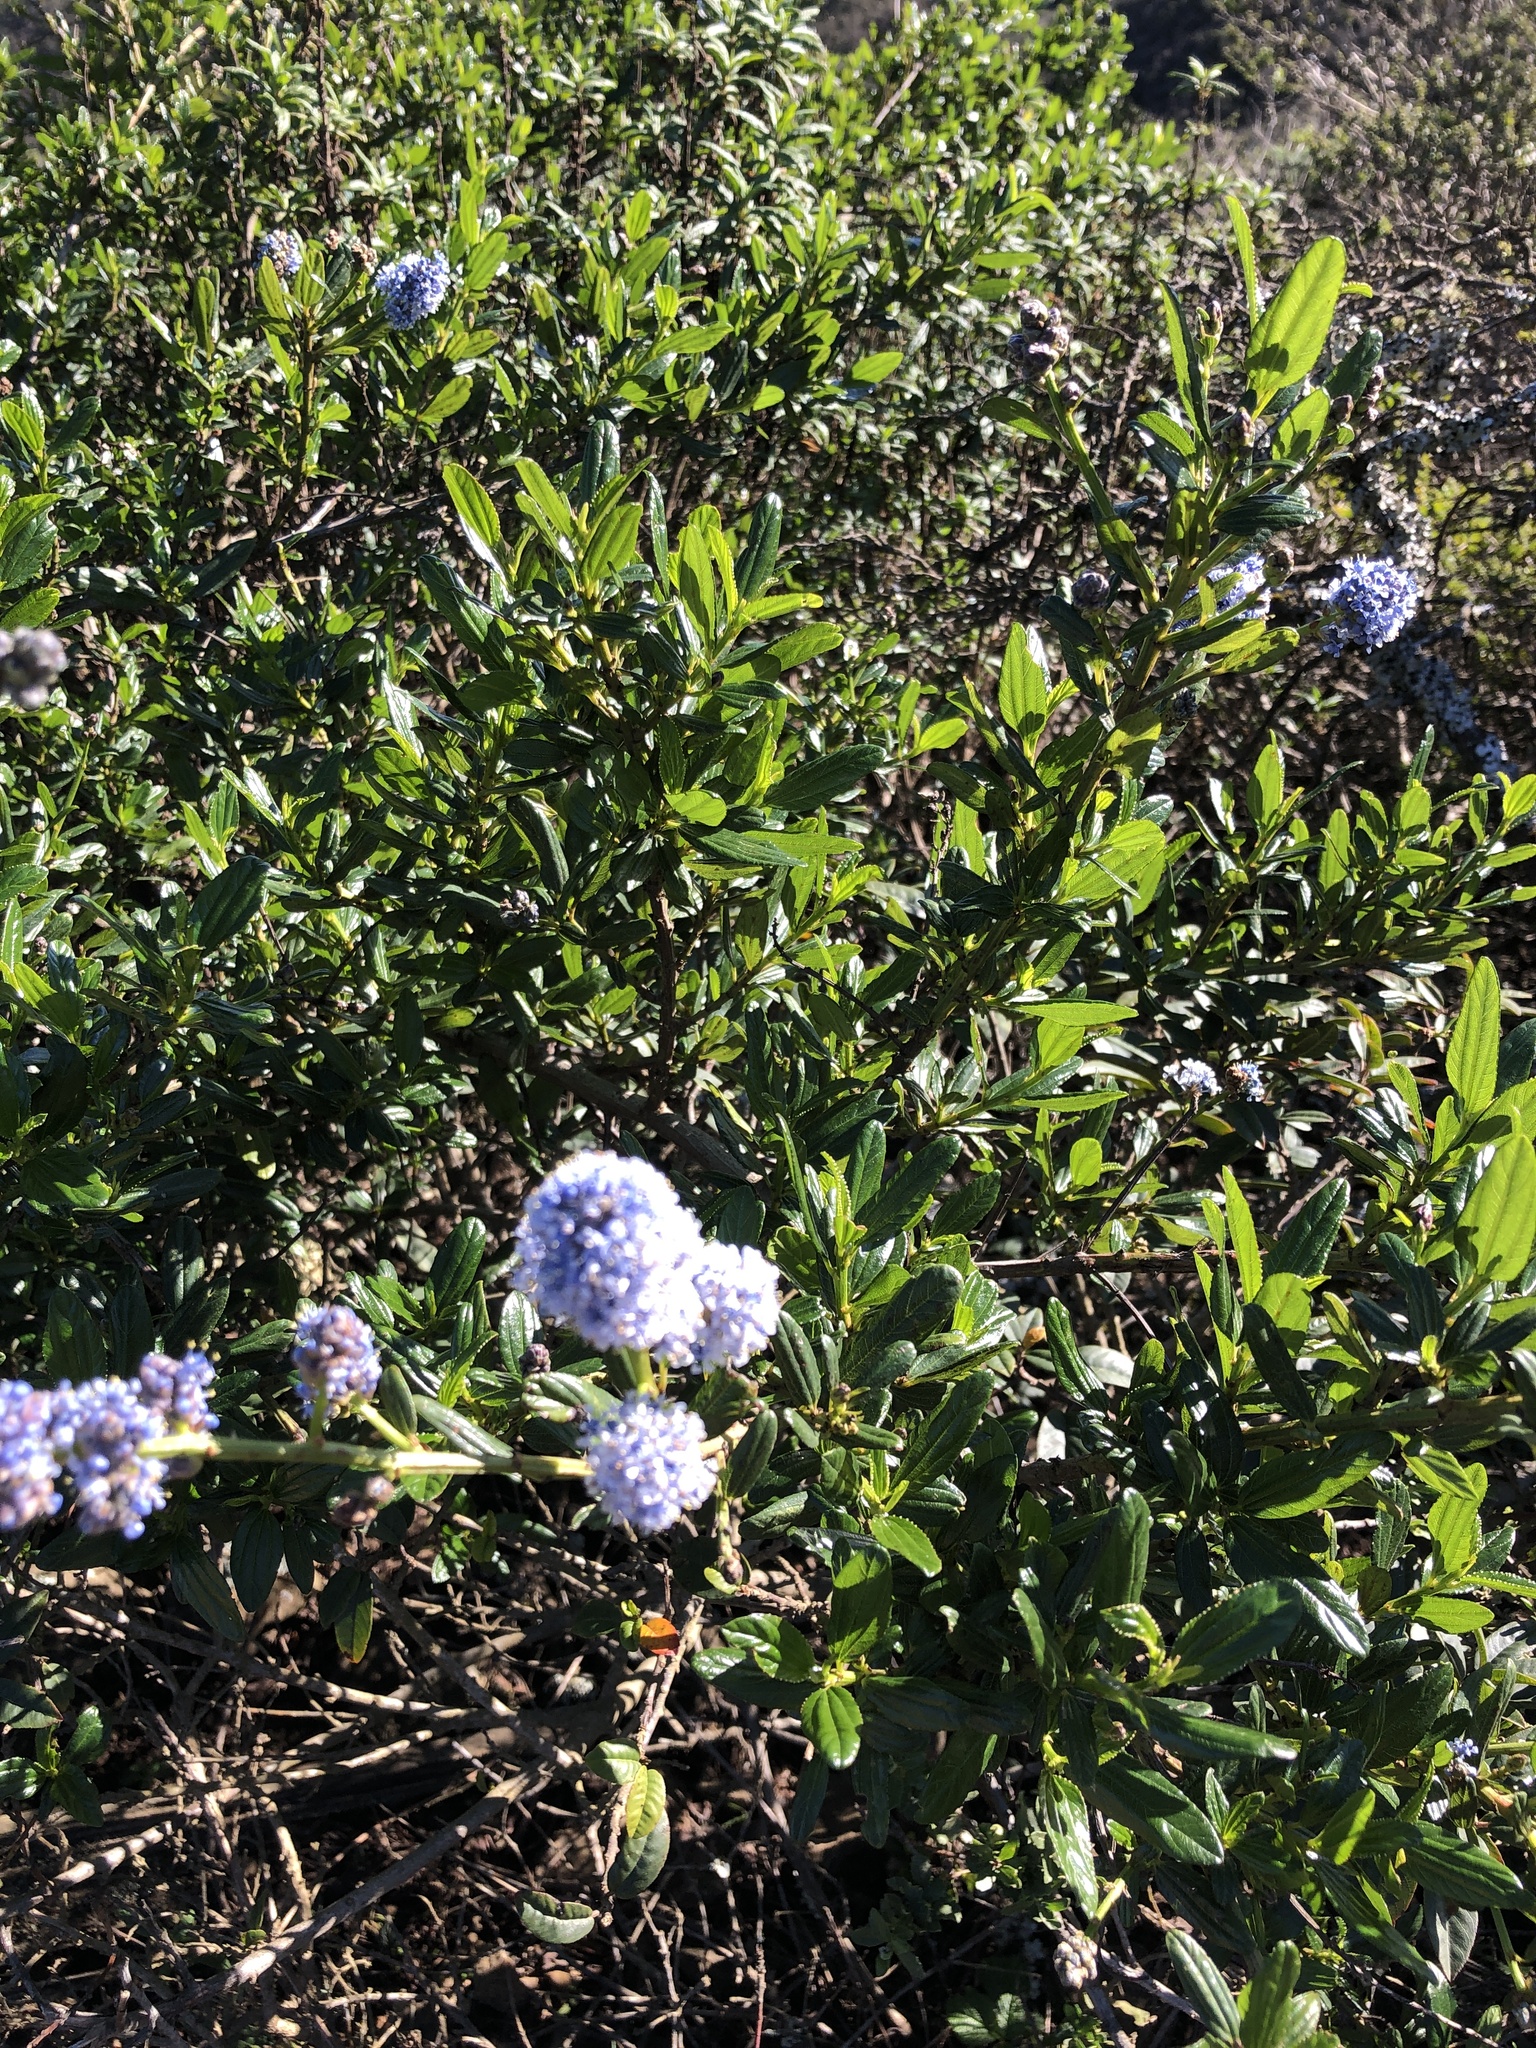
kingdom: Plantae
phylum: Tracheophyta
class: Magnoliopsida
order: Rosales
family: Rhamnaceae
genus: Ceanothus
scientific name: Ceanothus thyrsiflorus
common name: California-lilac
